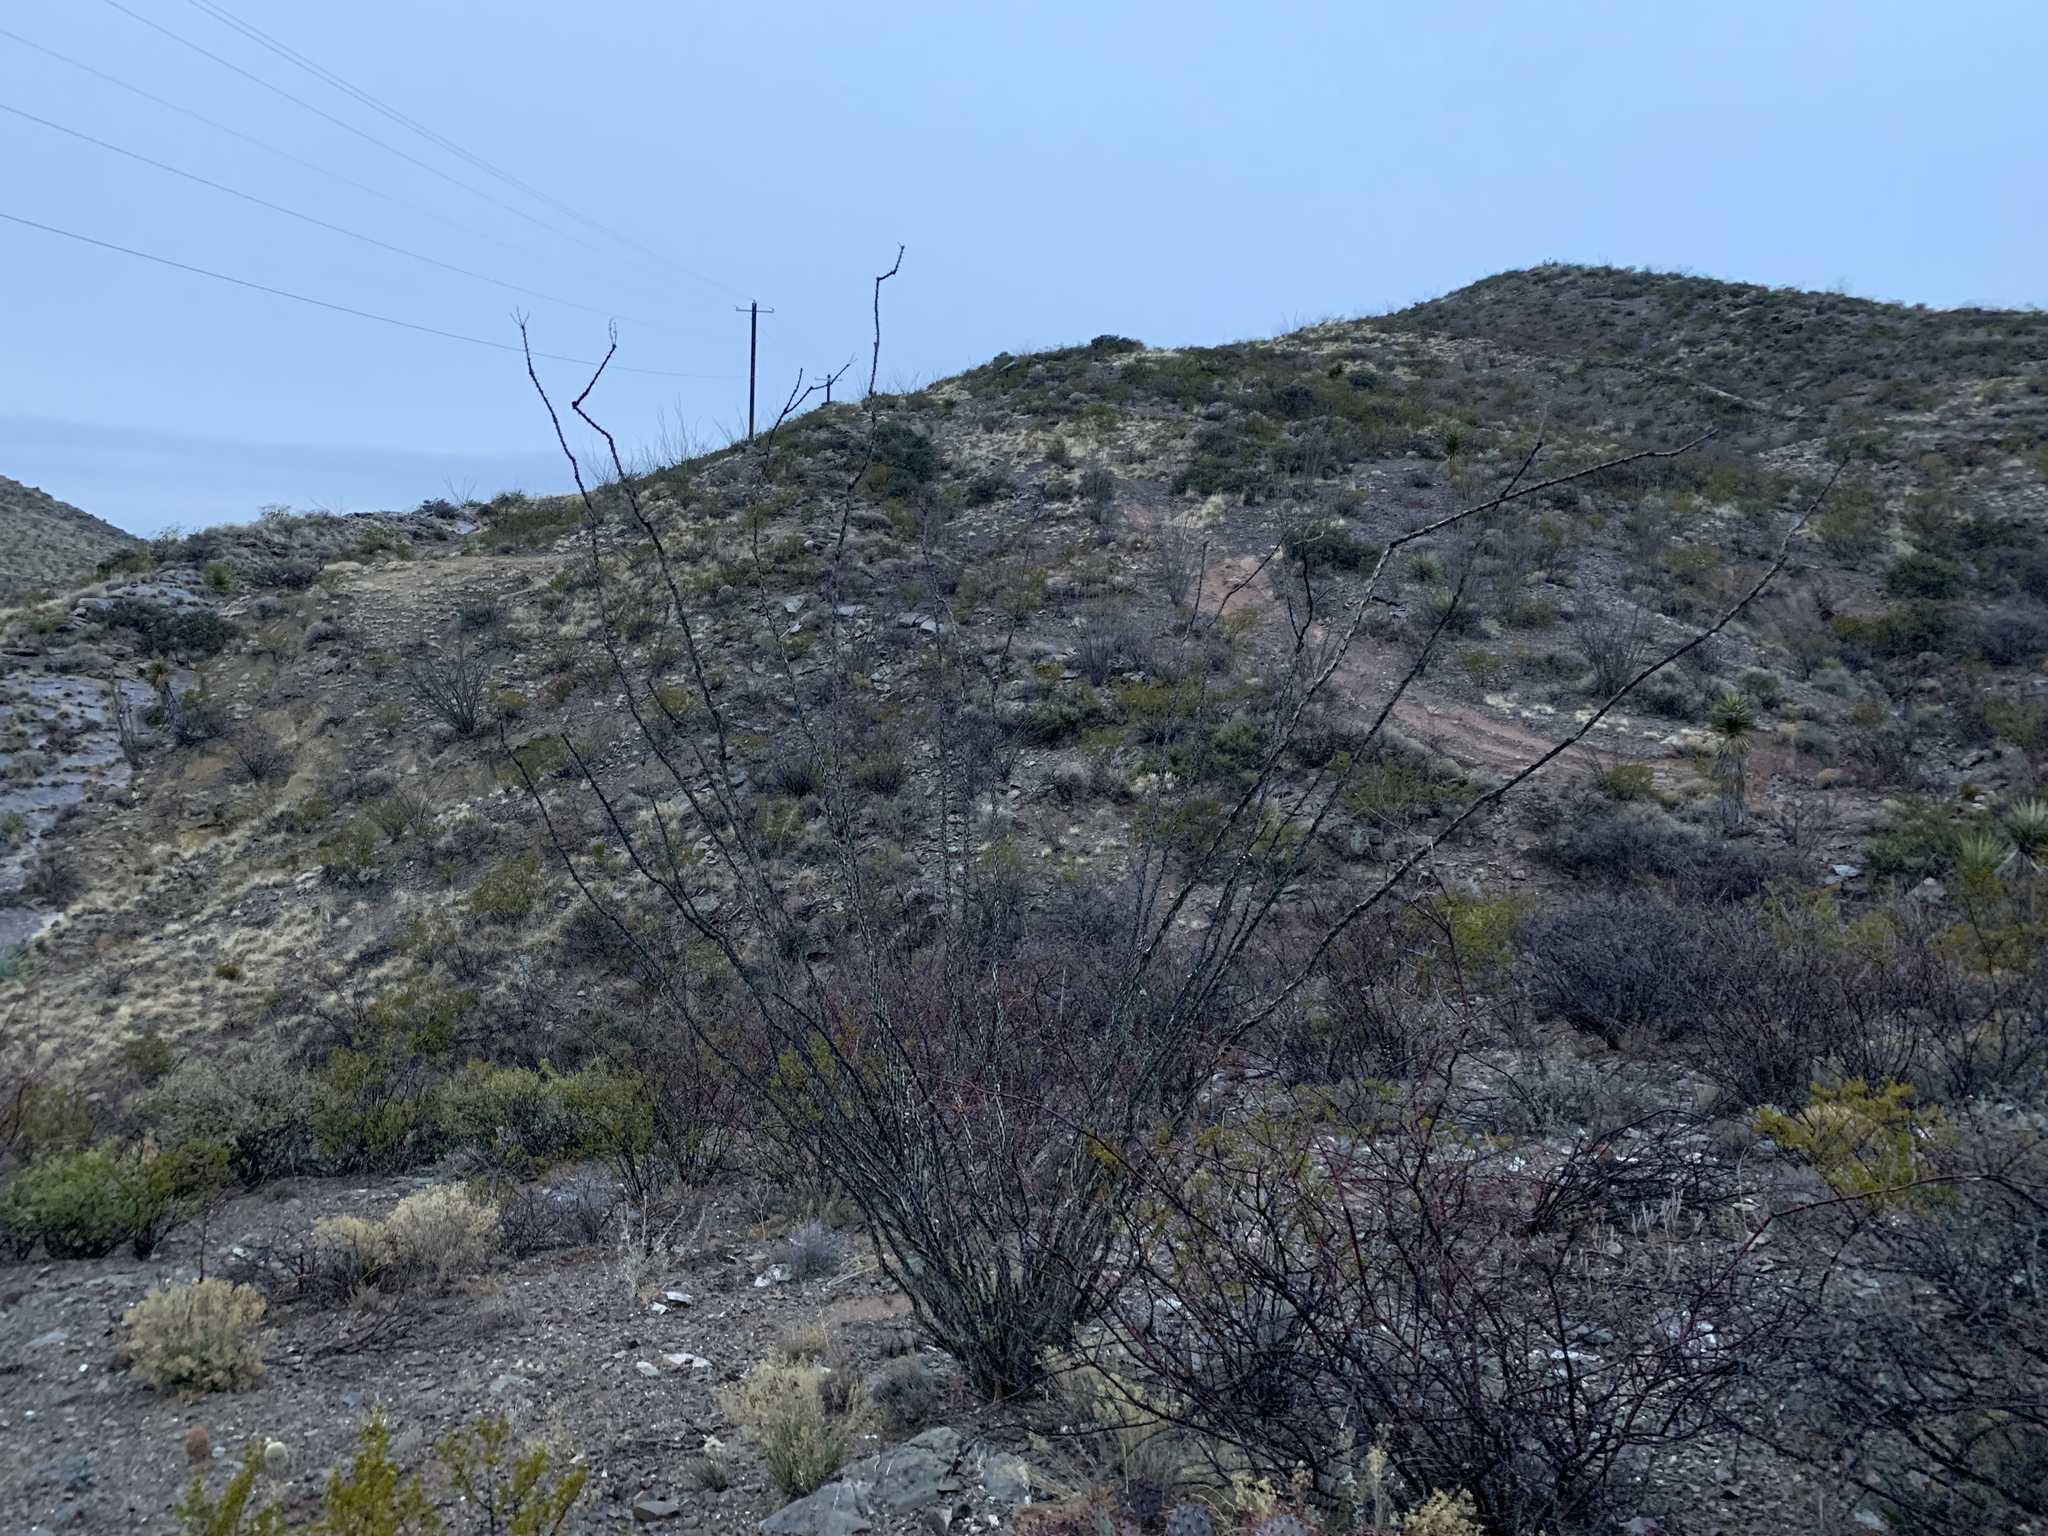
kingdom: Plantae
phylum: Tracheophyta
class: Magnoliopsida
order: Ericales
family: Fouquieriaceae
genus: Fouquieria
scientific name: Fouquieria splendens
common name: Vine-cactus
